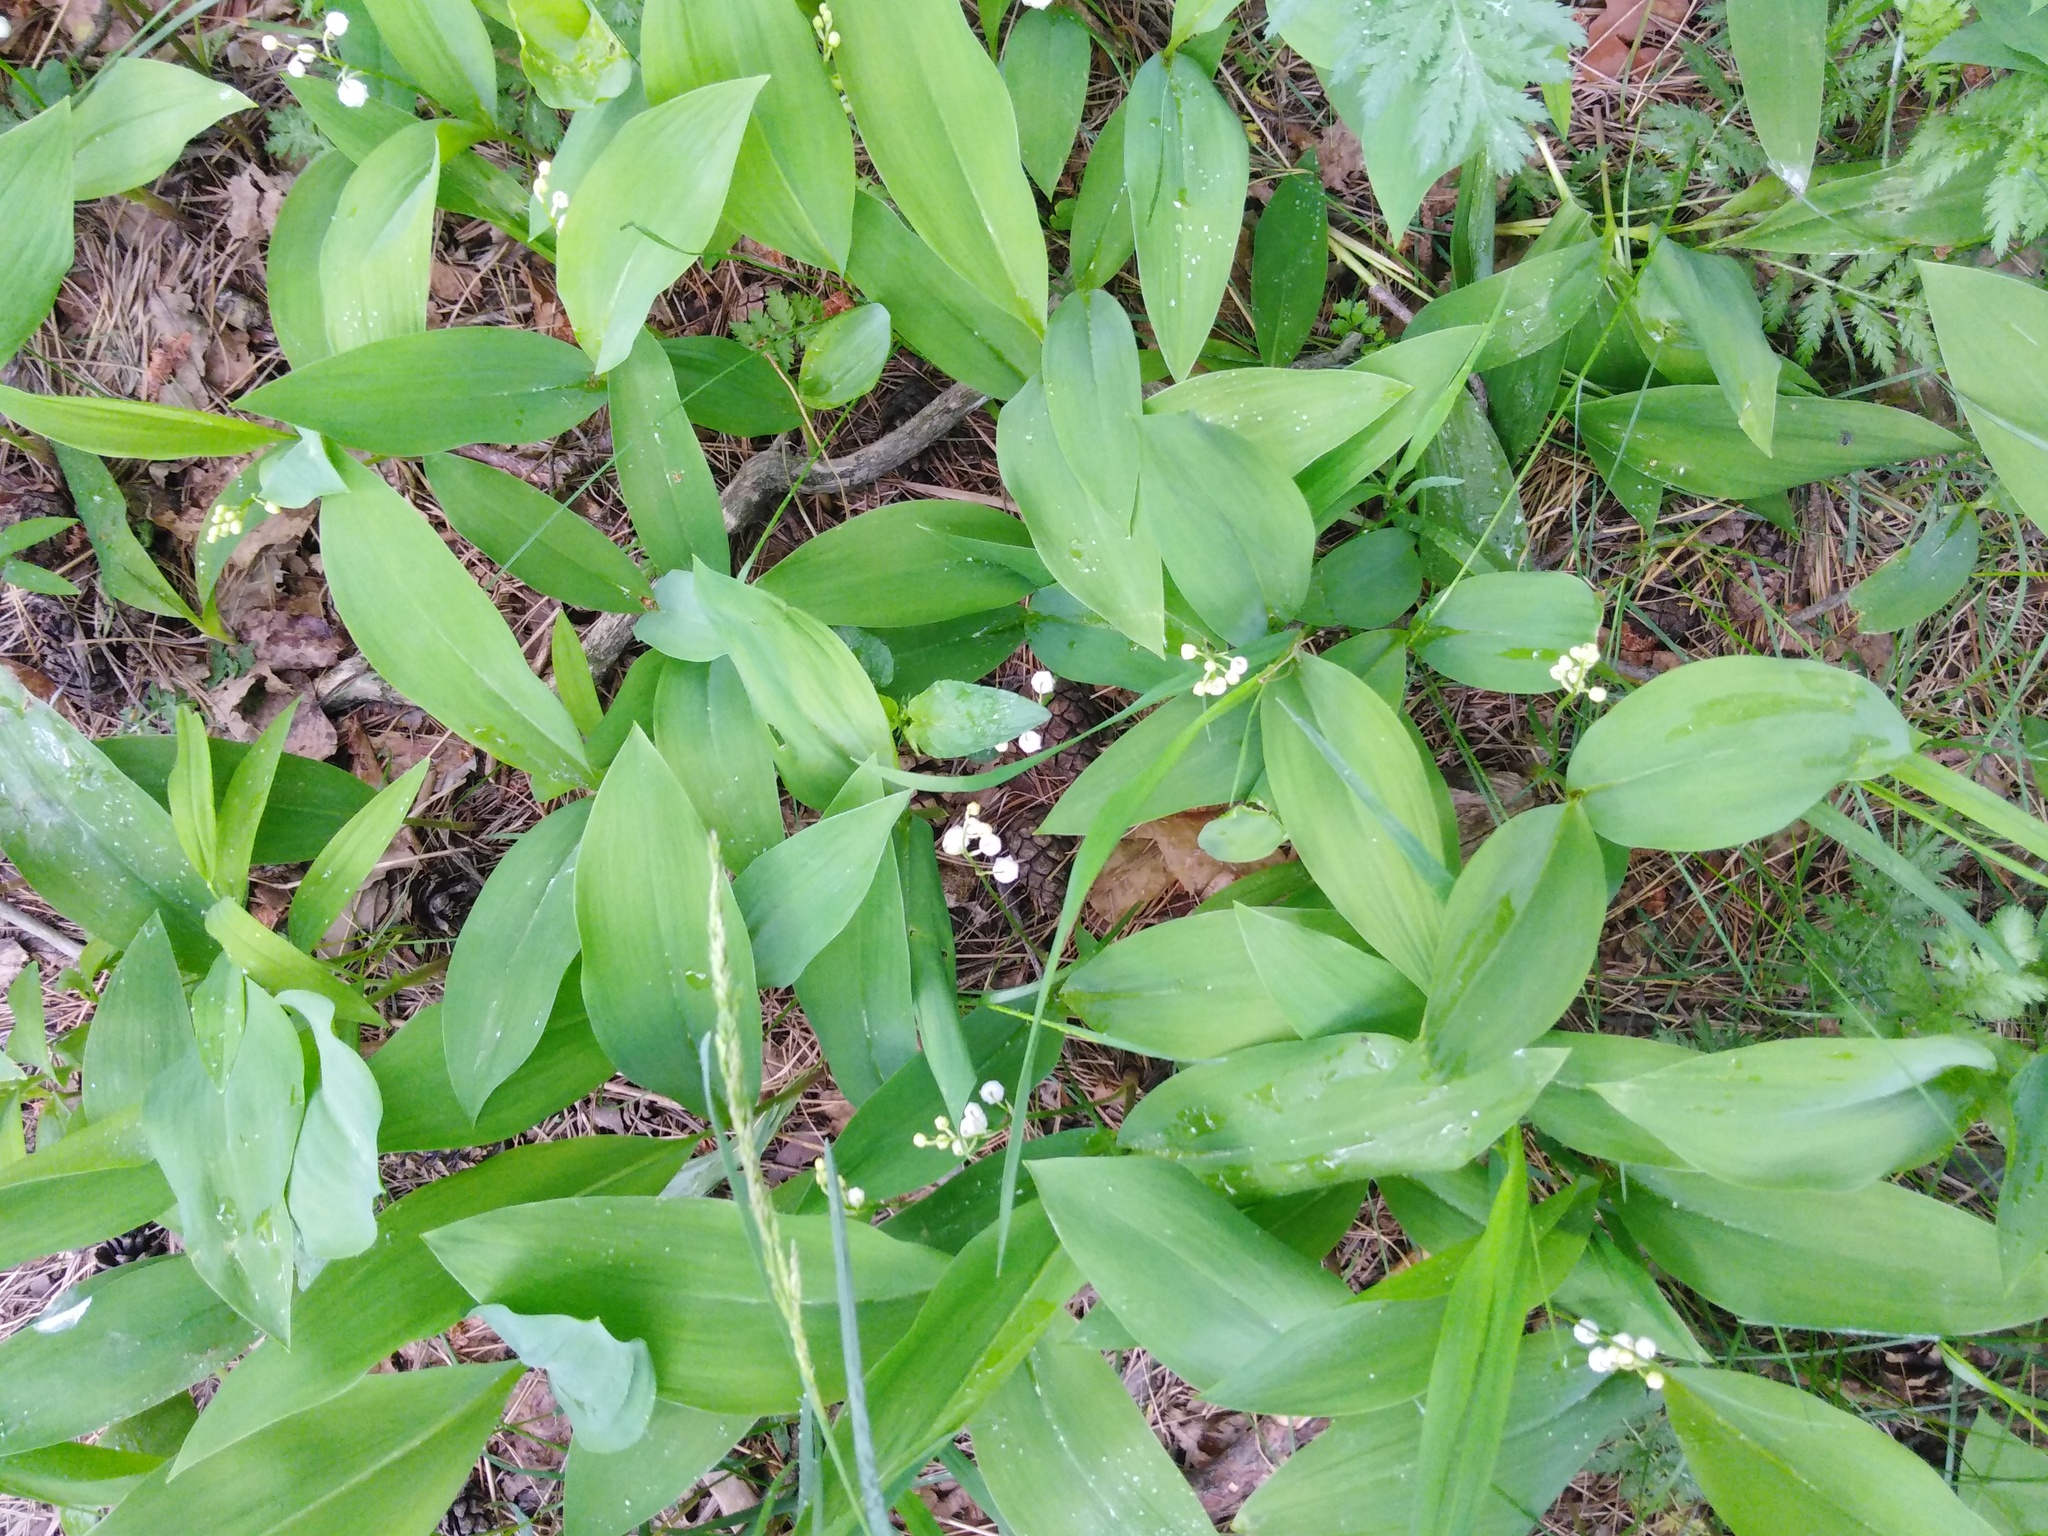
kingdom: Plantae
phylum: Tracheophyta
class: Liliopsida
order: Asparagales
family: Asparagaceae
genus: Convallaria
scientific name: Convallaria majalis
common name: Lily-of-the-valley
